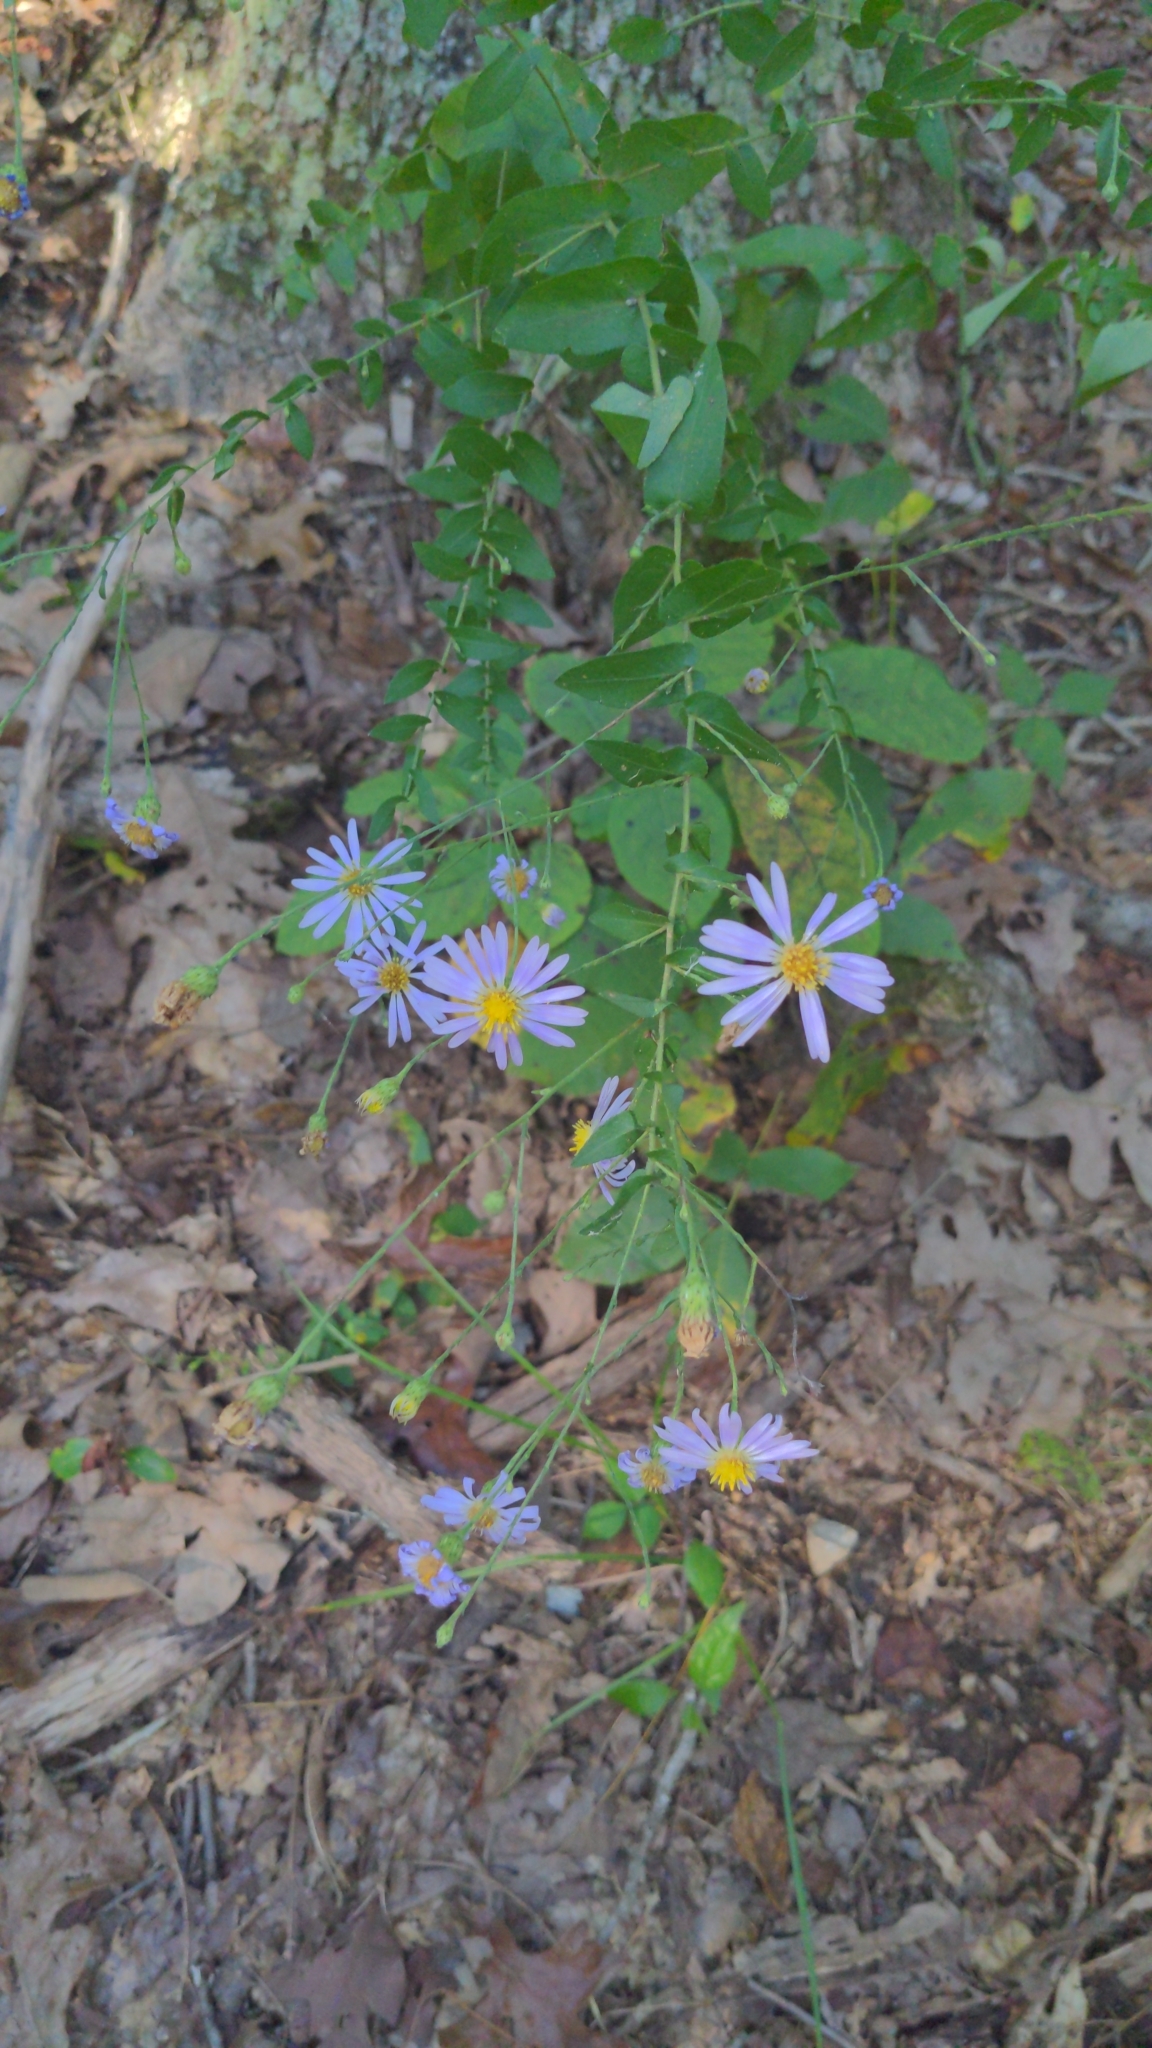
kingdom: Plantae
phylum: Tracheophyta
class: Magnoliopsida
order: Asterales
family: Asteraceae
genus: Symphyotrichum
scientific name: Symphyotrichum patens
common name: Late purple aster
